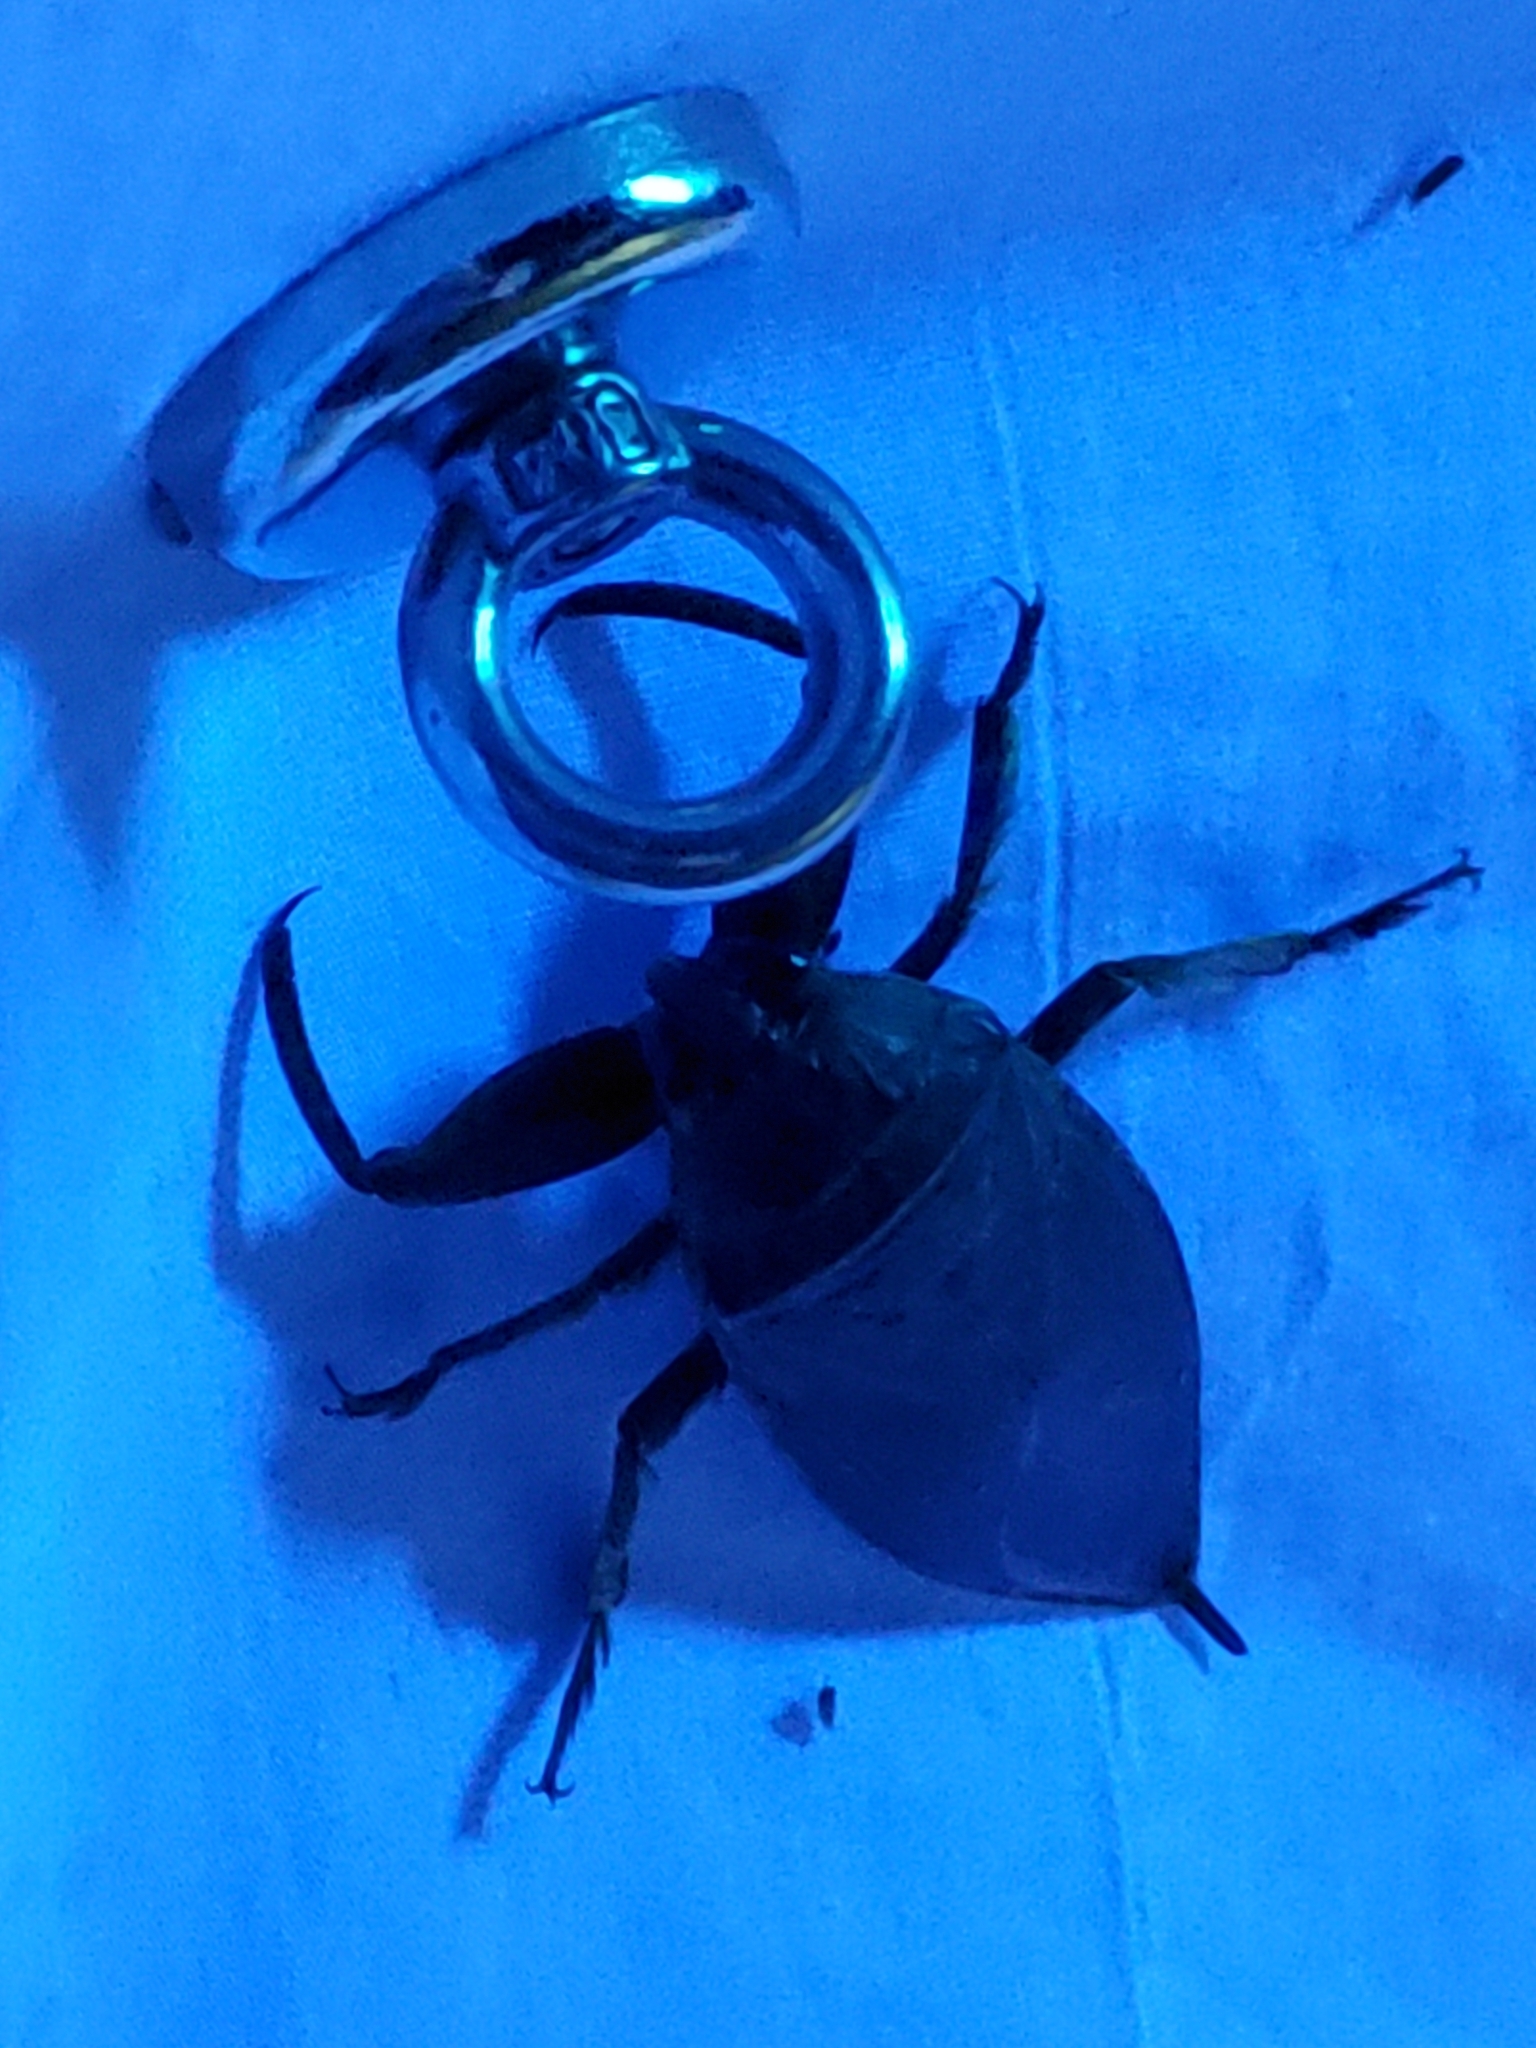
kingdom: Animalia
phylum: Arthropoda
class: Insecta
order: Hemiptera
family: Belostomatidae
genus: Lethocerus
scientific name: Lethocerus uhleri
